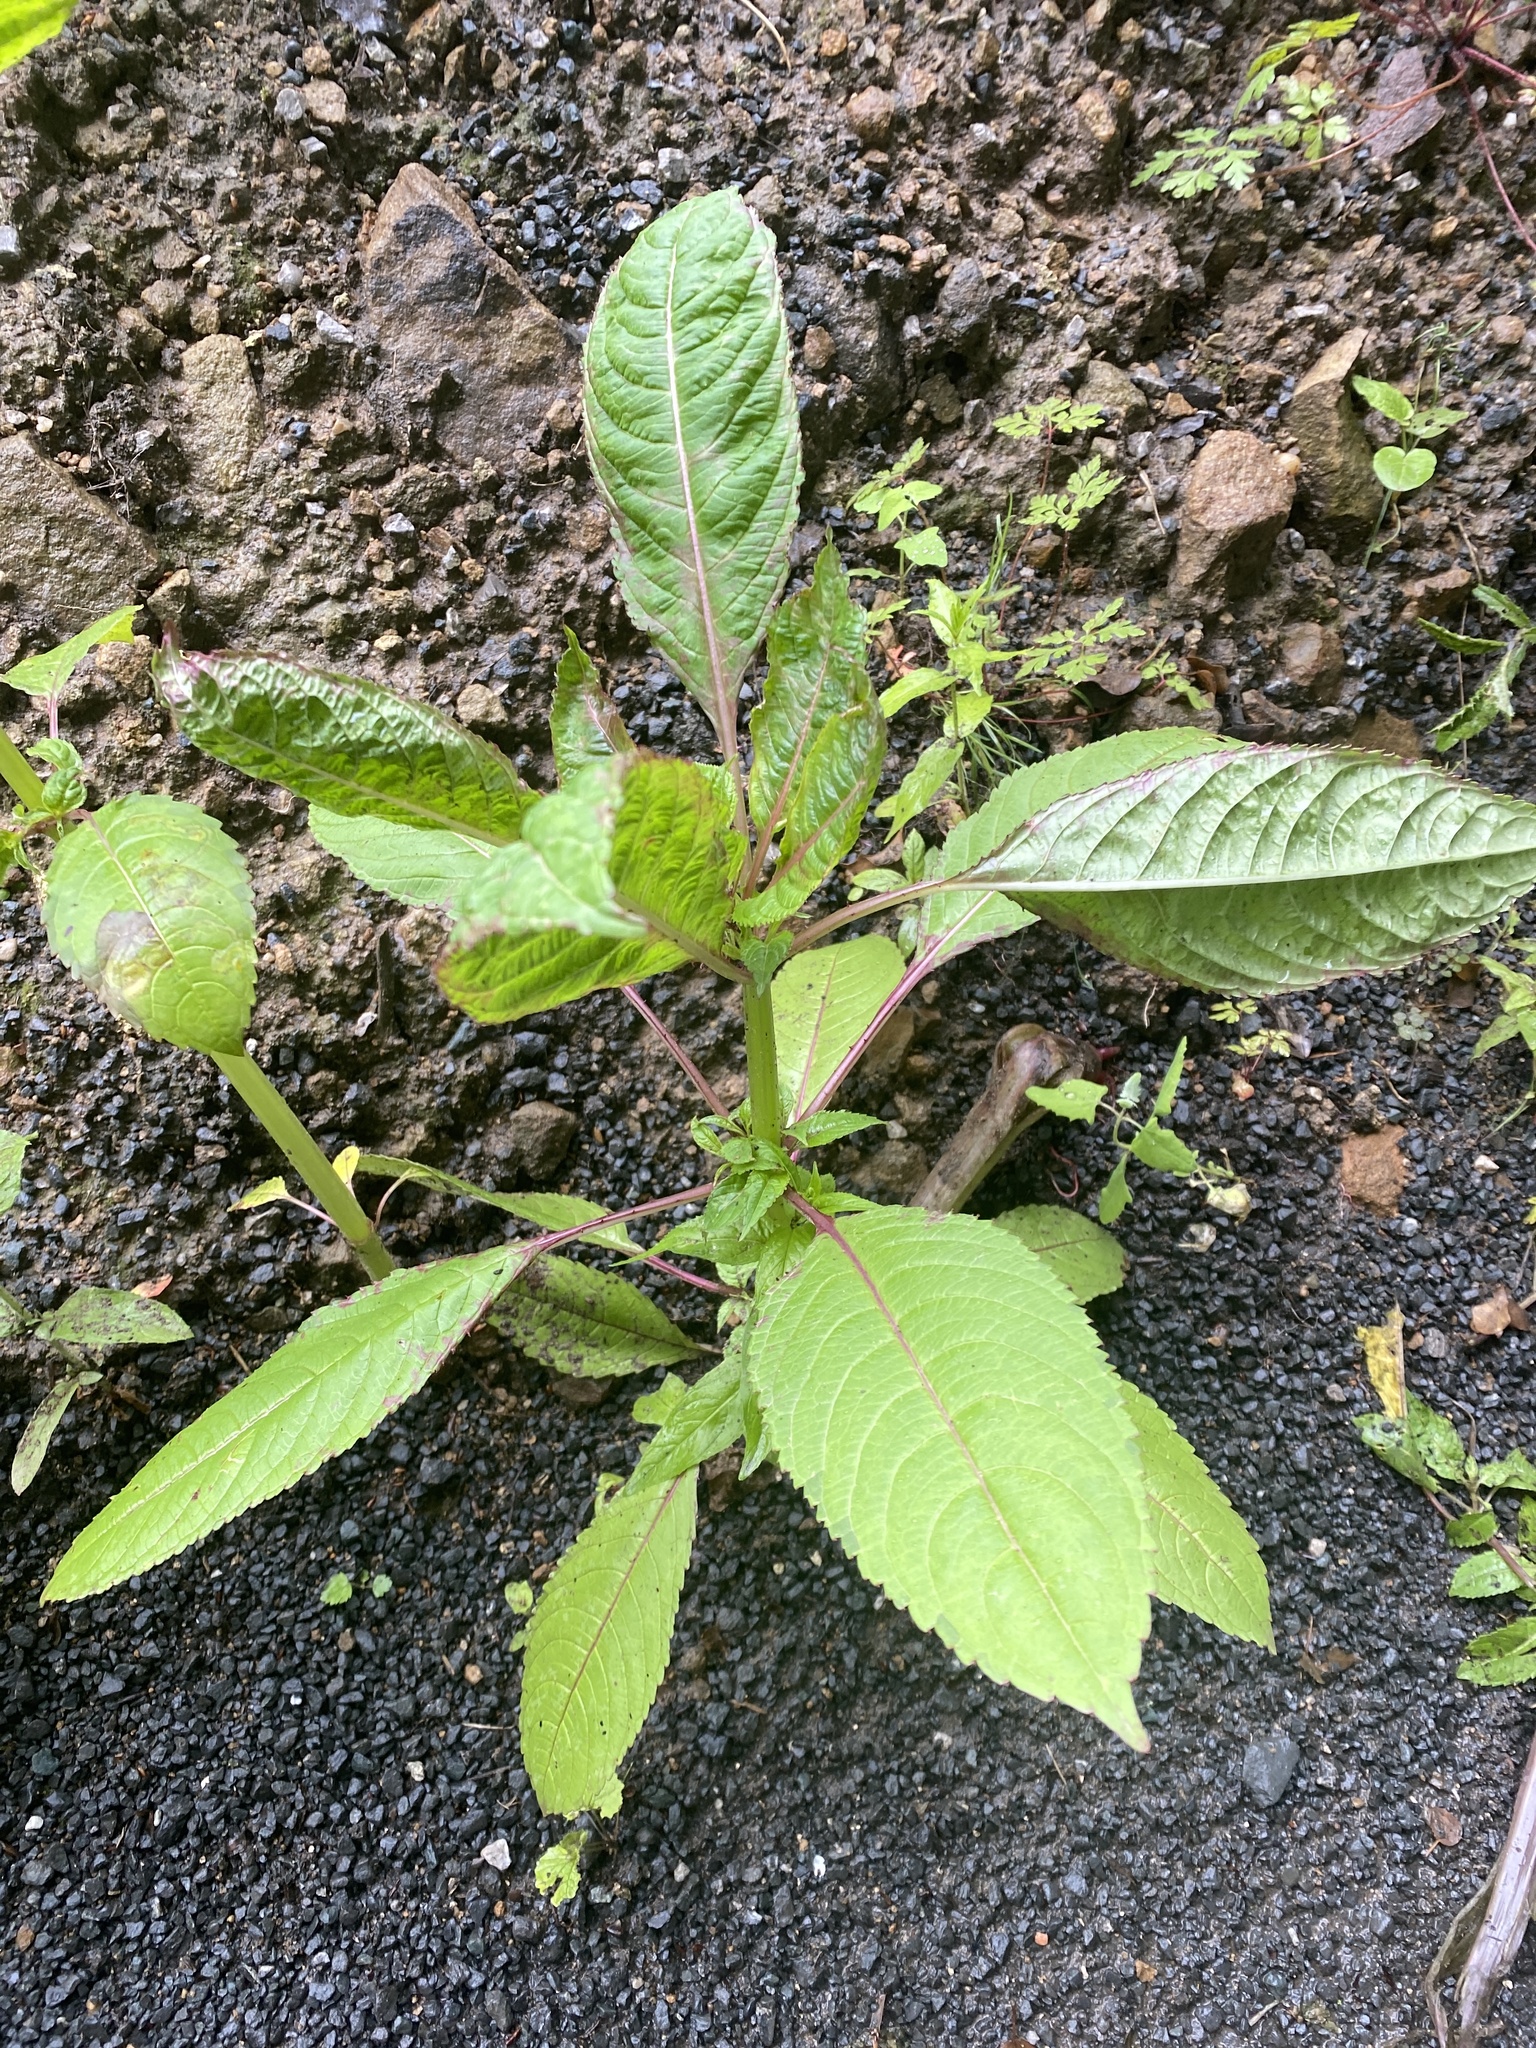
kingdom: Plantae
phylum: Tracheophyta
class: Magnoliopsida
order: Ericales
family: Balsaminaceae
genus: Impatiens
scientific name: Impatiens glandulifera
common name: Himalayan balsam
